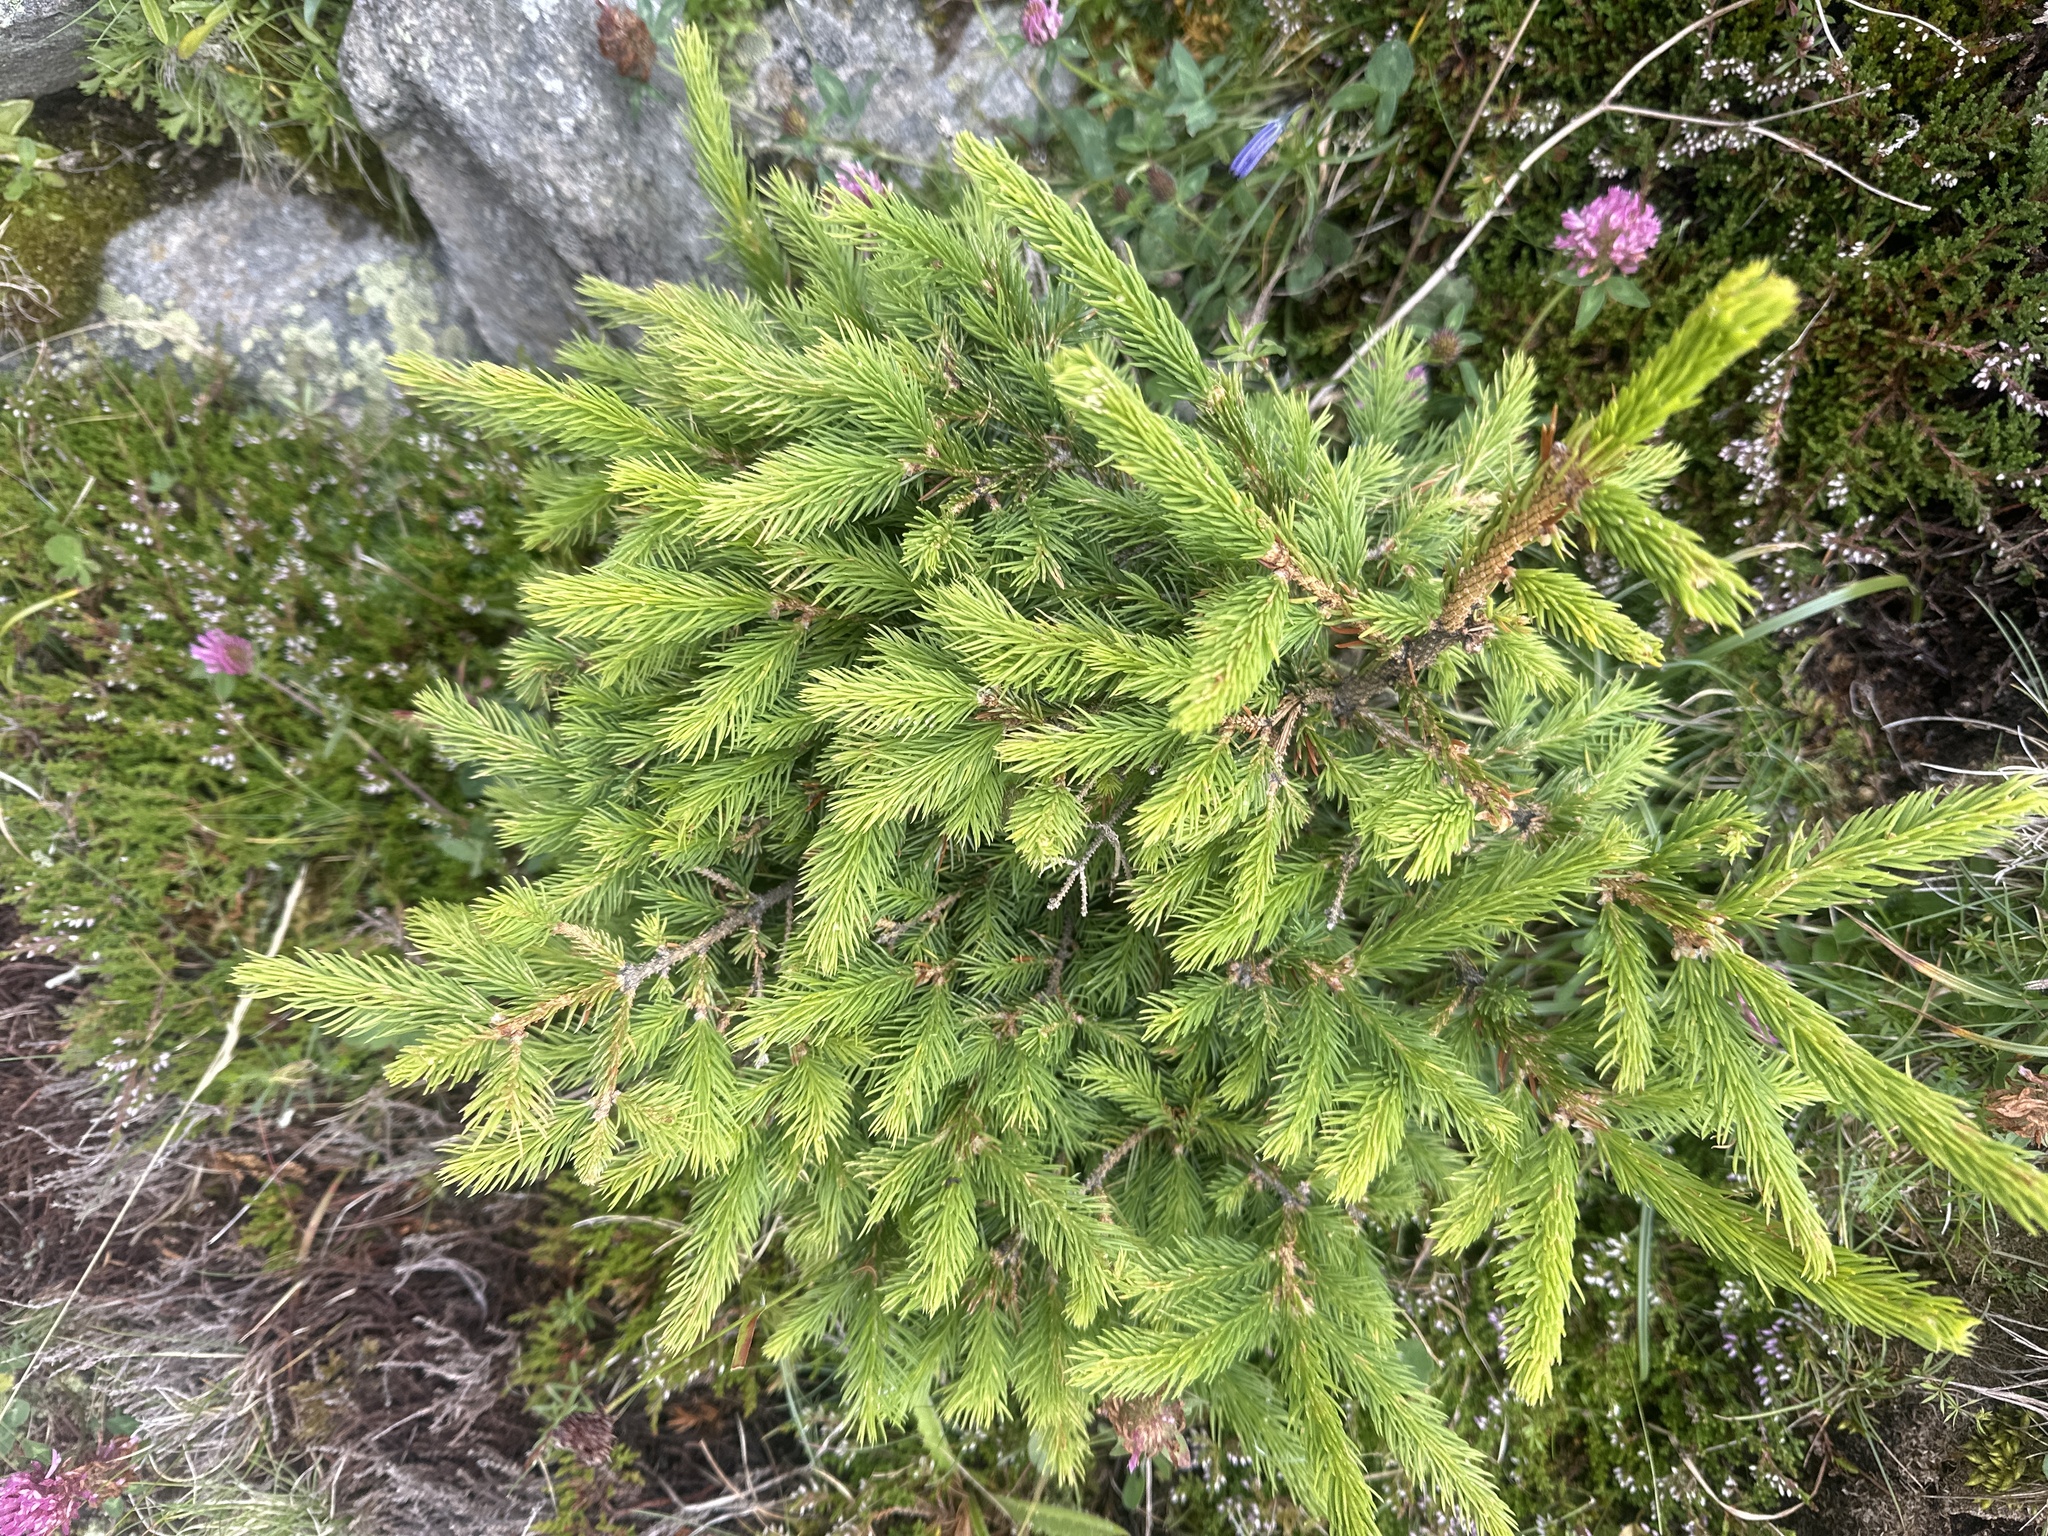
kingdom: Plantae
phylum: Tracheophyta
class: Pinopsida
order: Pinales
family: Pinaceae
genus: Picea
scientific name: Picea abies
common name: Norway spruce
